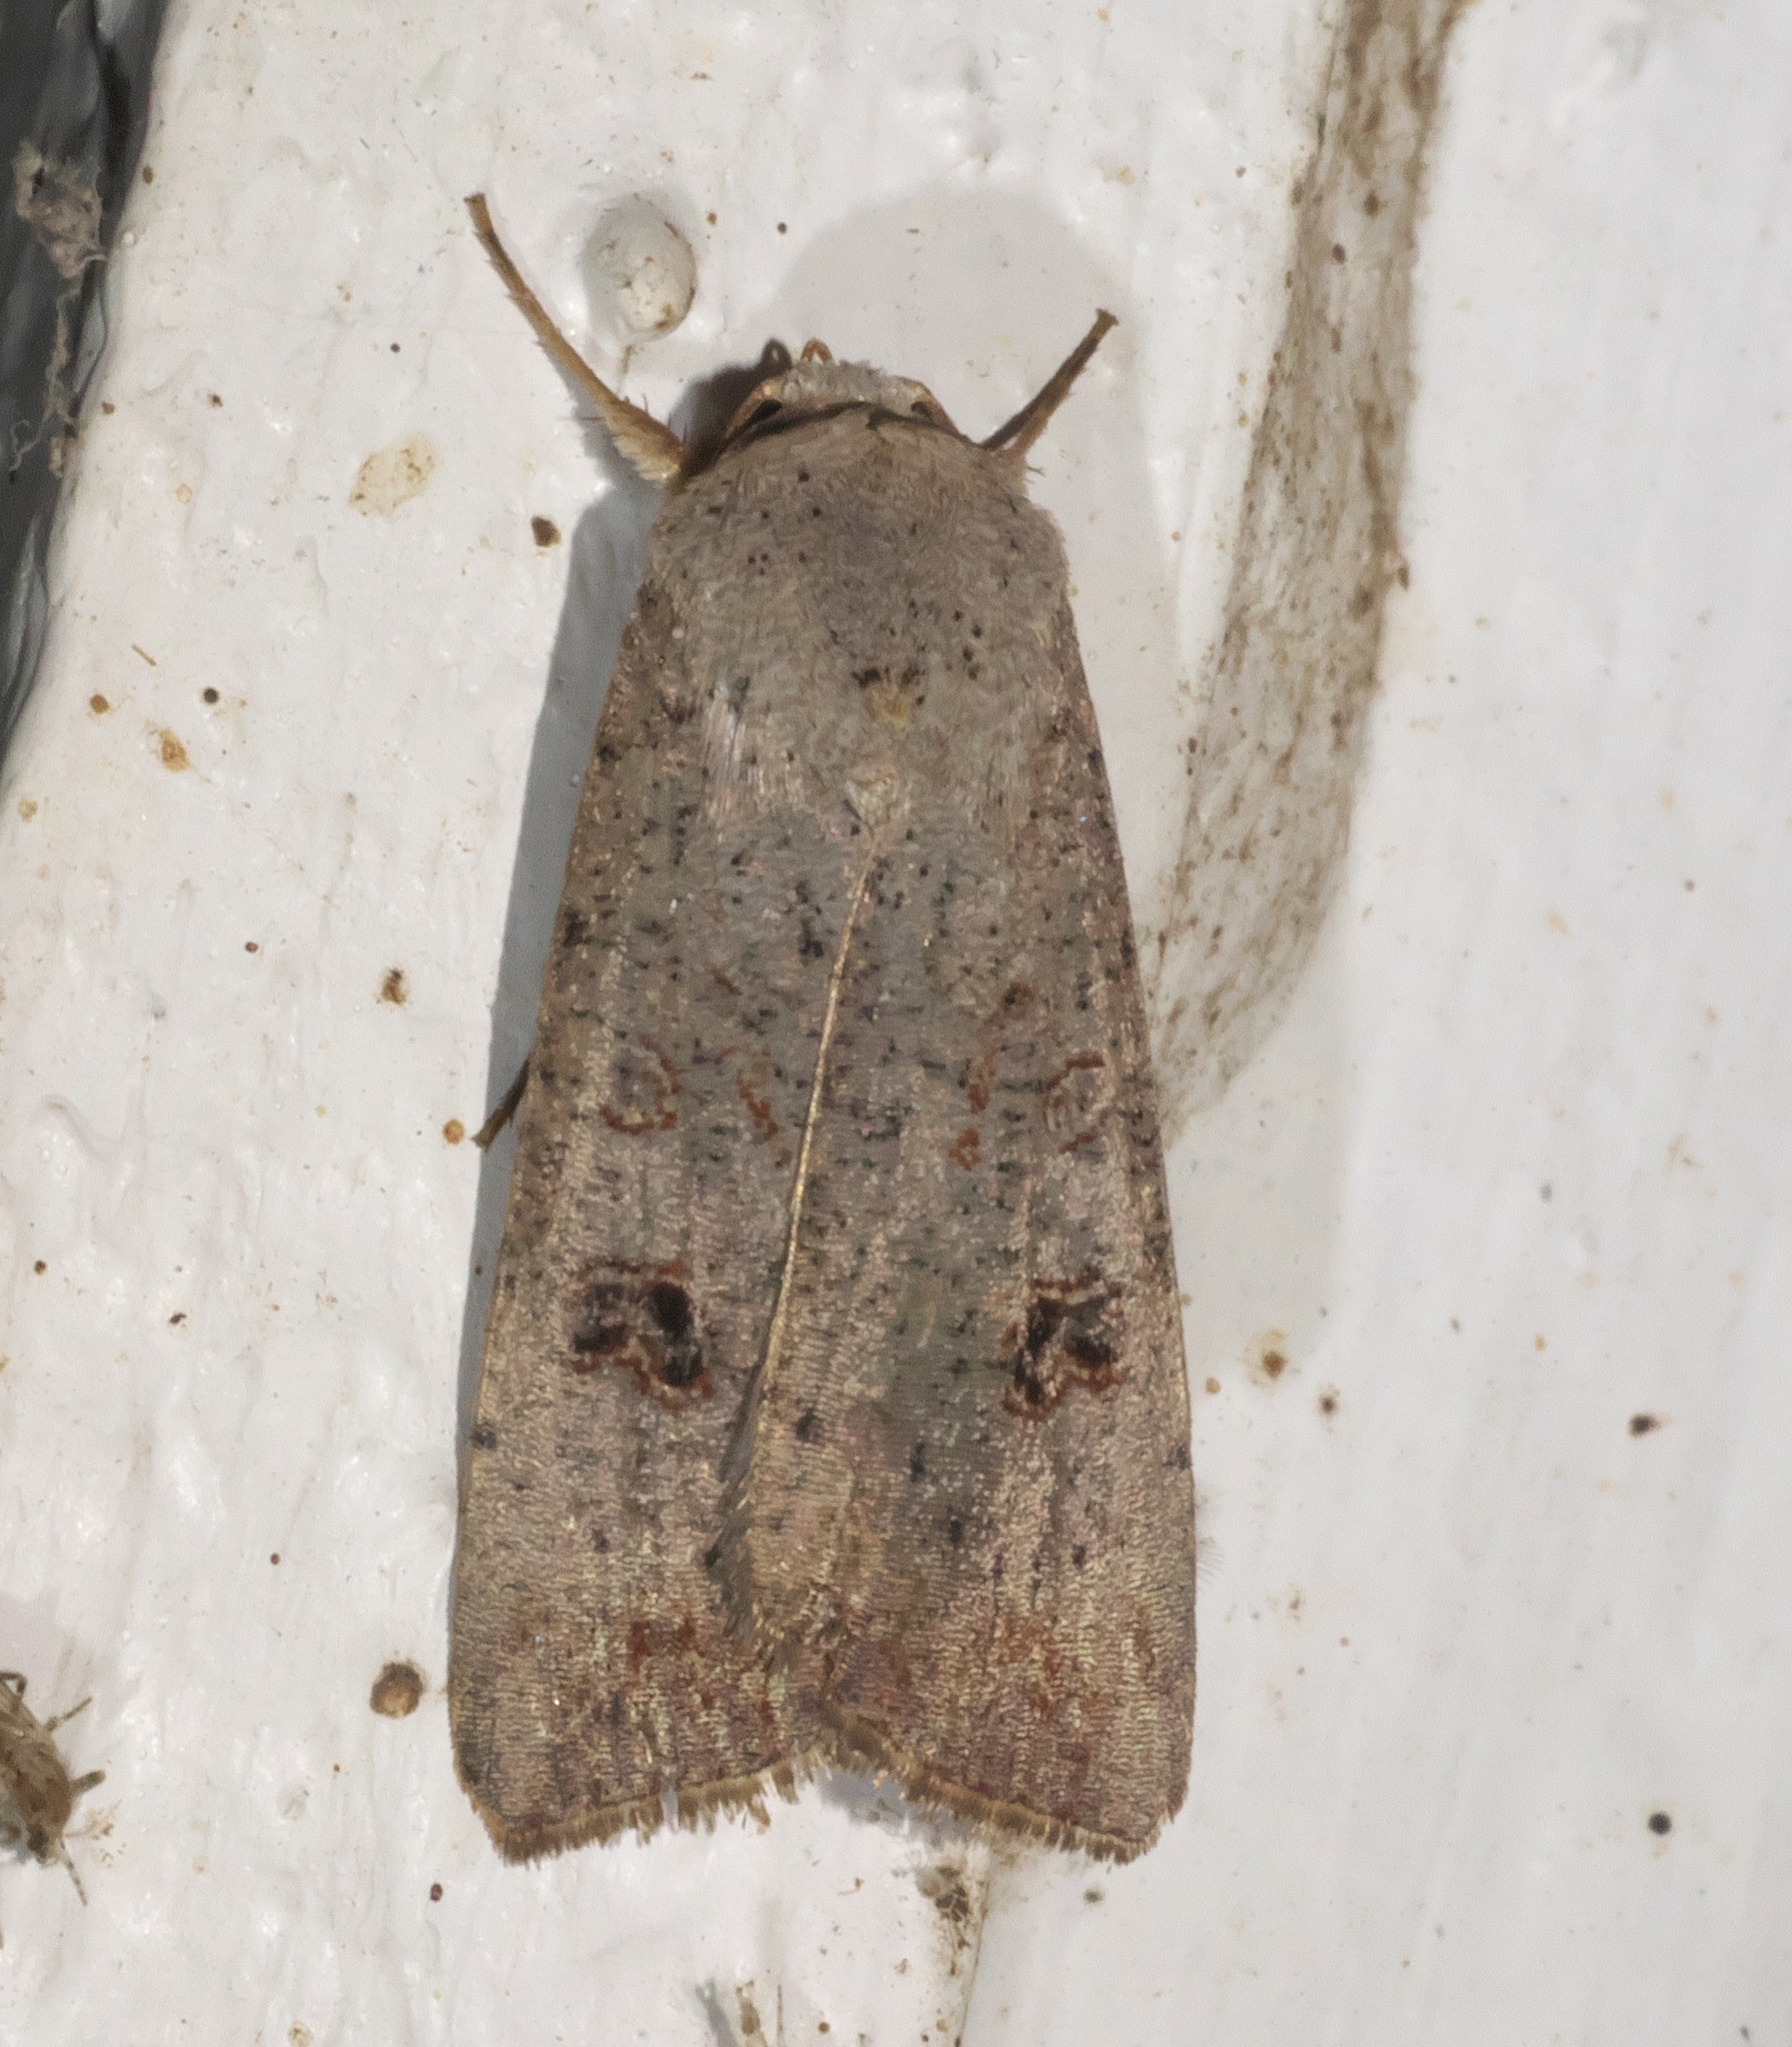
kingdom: Animalia
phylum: Arthropoda
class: Insecta
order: Lepidoptera
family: Noctuidae
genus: Anicla
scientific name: Anicla infecta
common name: Green cutworm
